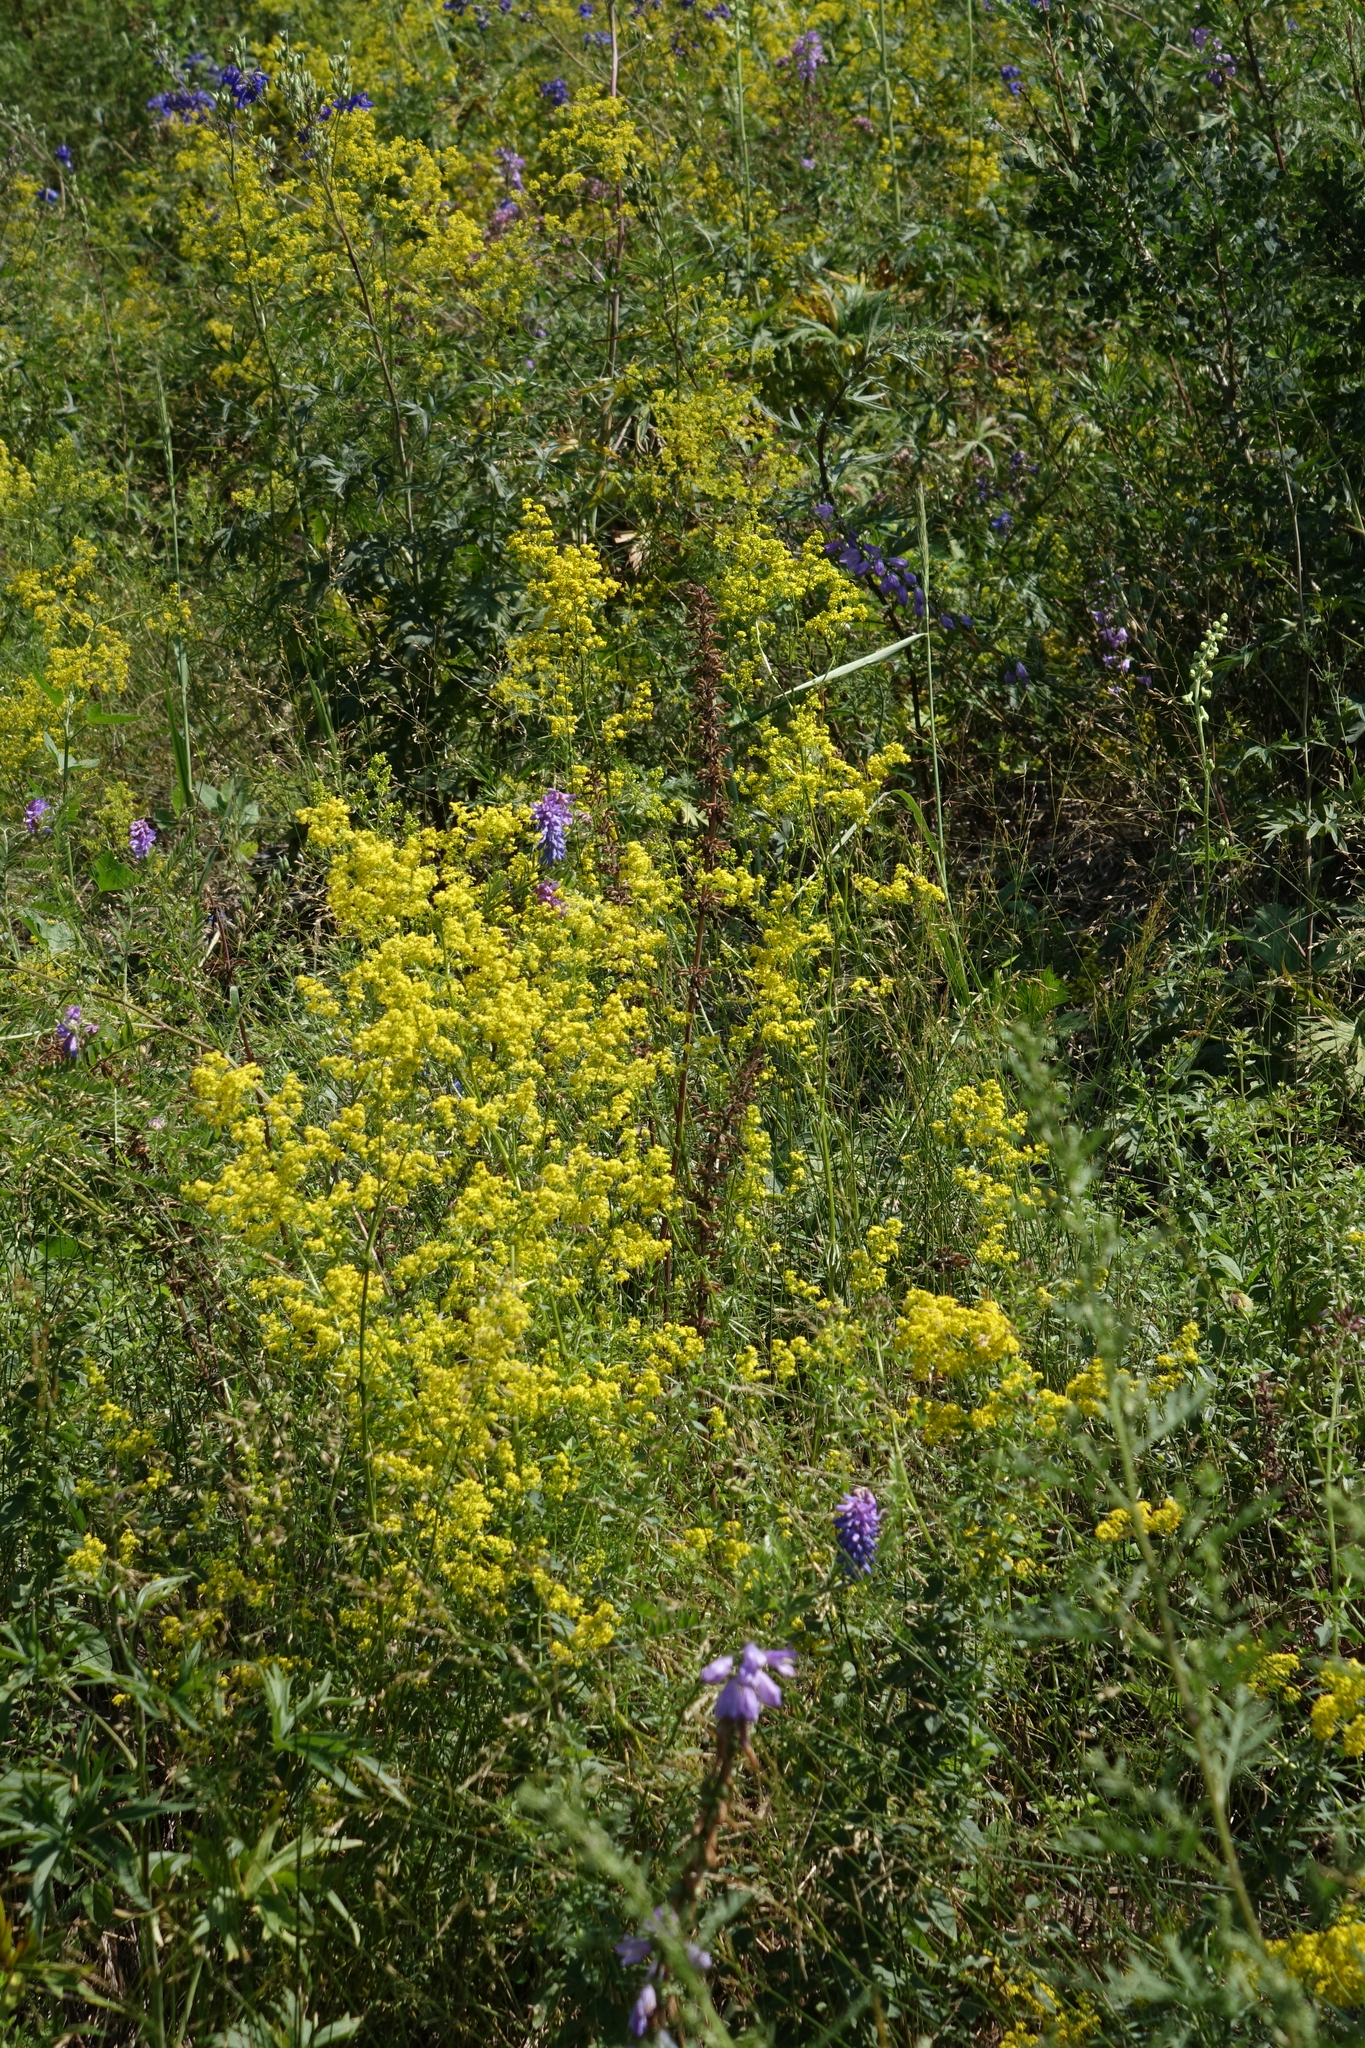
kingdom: Plantae
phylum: Tracheophyta
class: Magnoliopsida
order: Gentianales
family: Rubiaceae
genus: Galium
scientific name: Galium verum
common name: Lady's bedstraw
